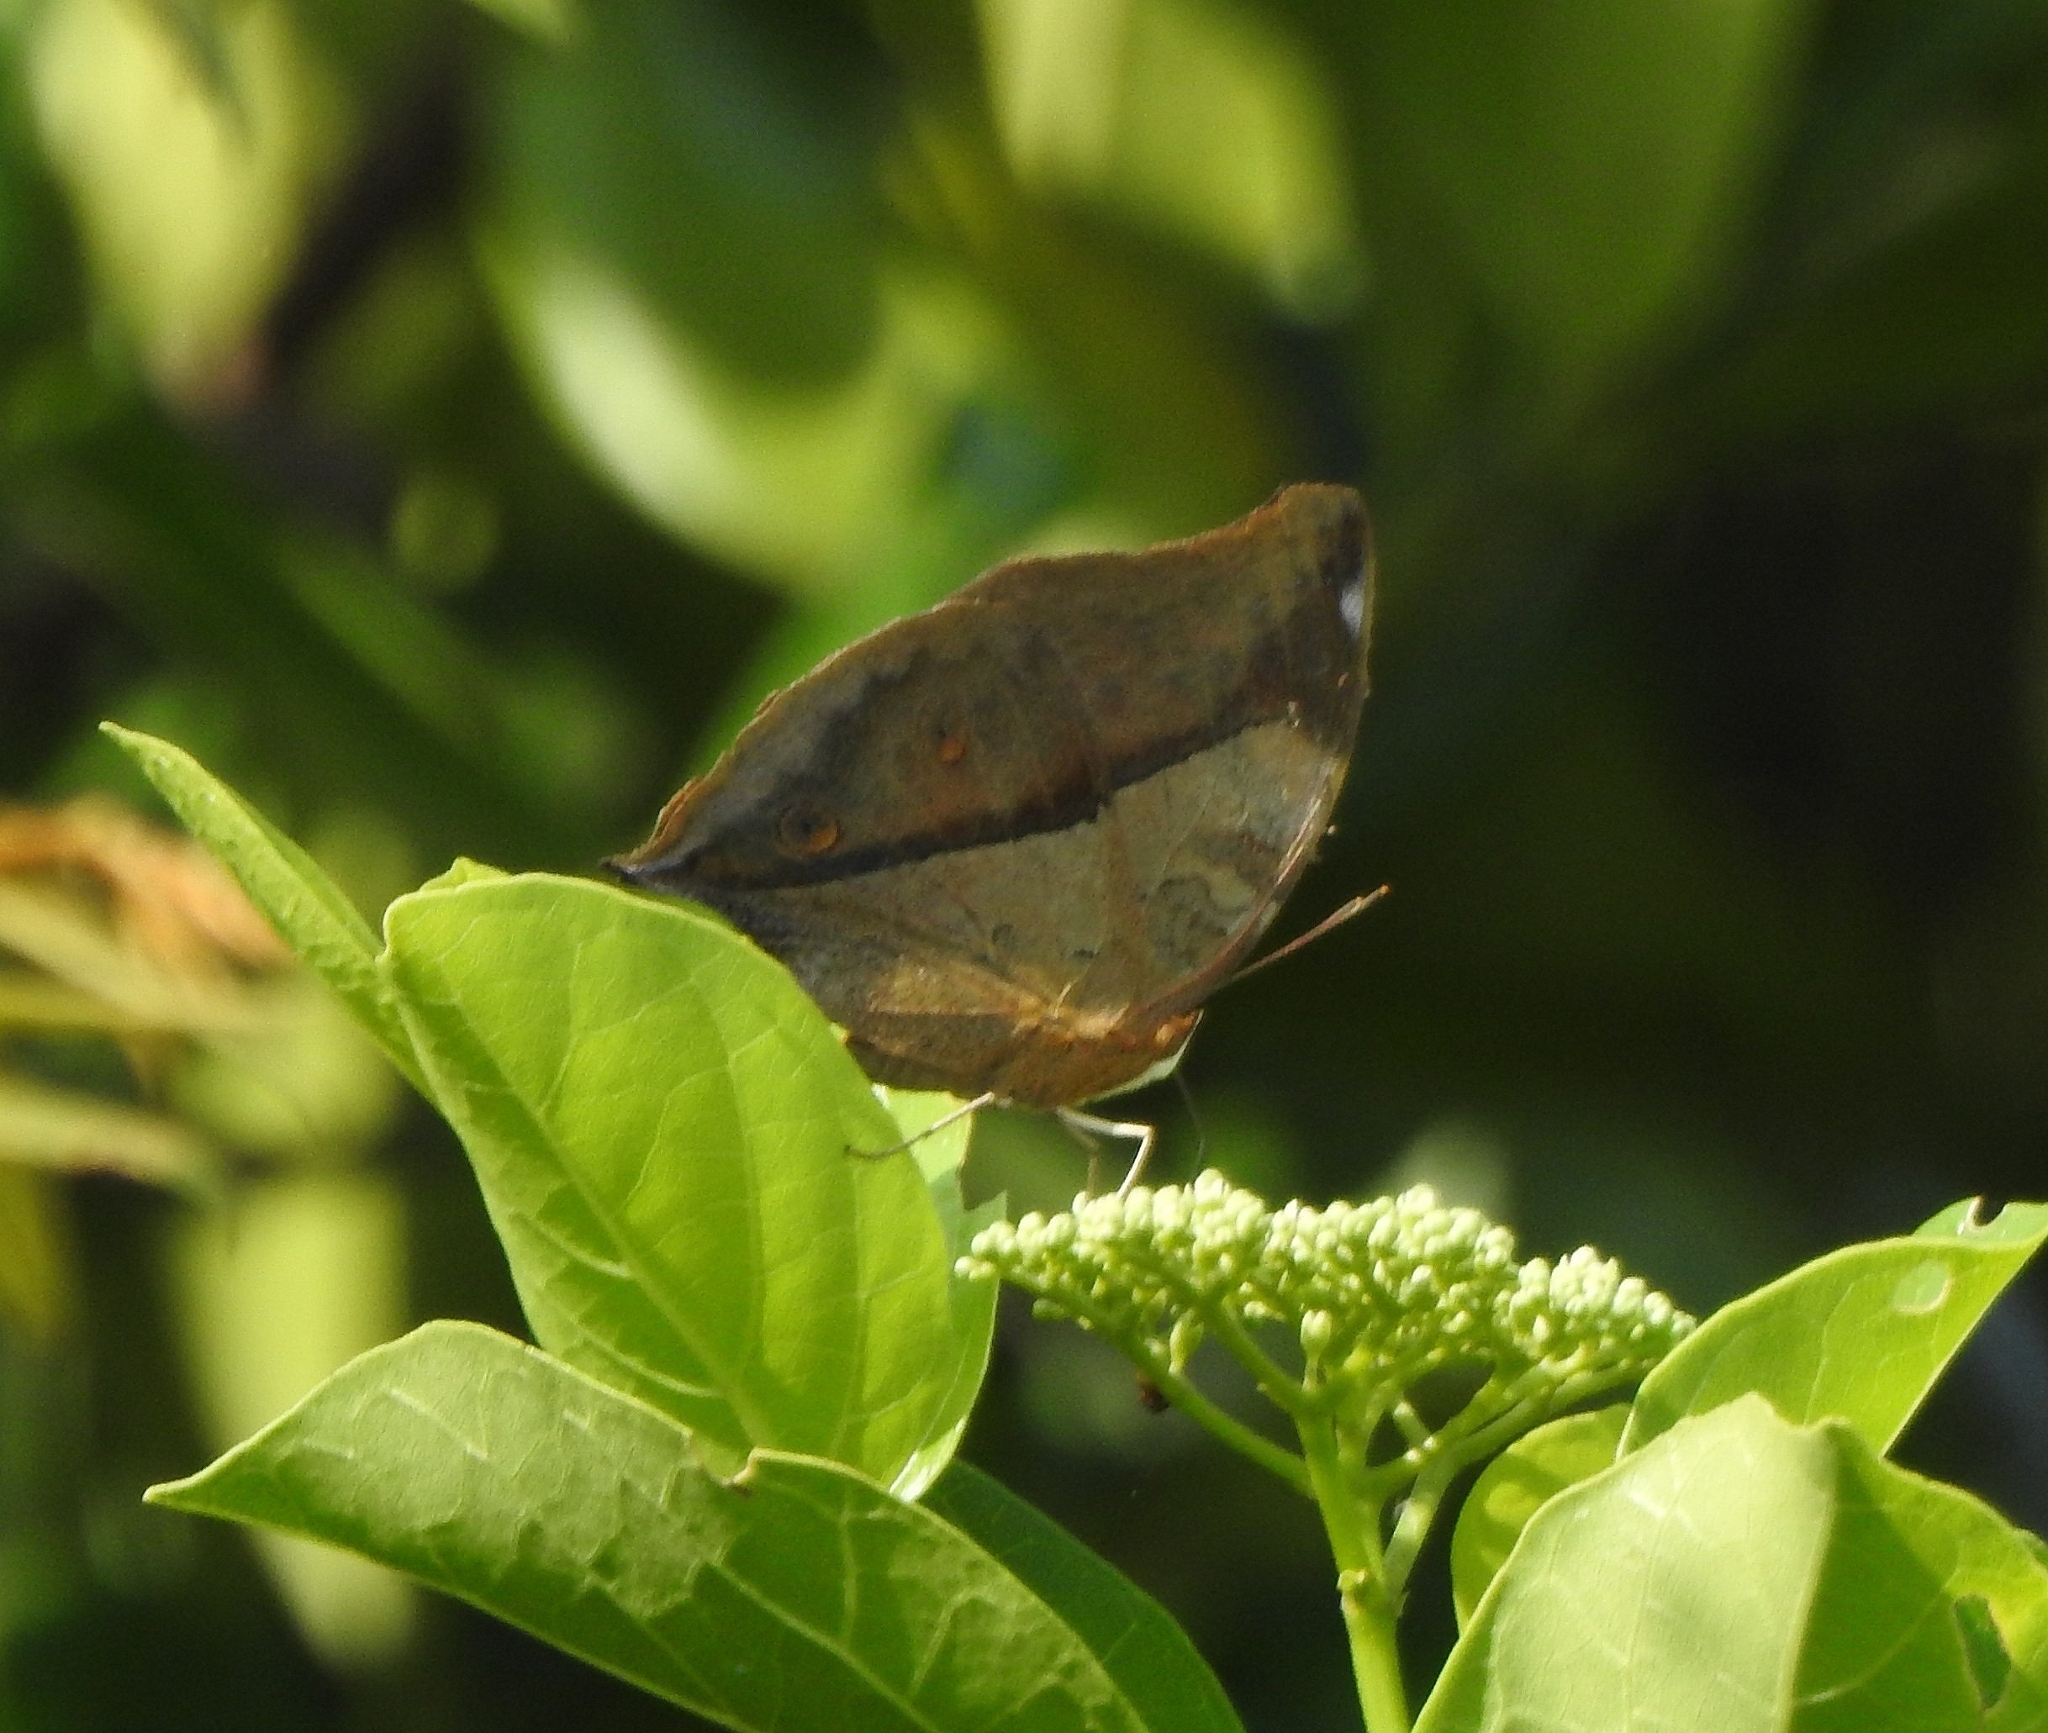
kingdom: Animalia
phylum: Arthropoda
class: Insecta
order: Lepidoptera
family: Nymphalidae
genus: Doleschallia
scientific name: Doleschallia bisaltide
